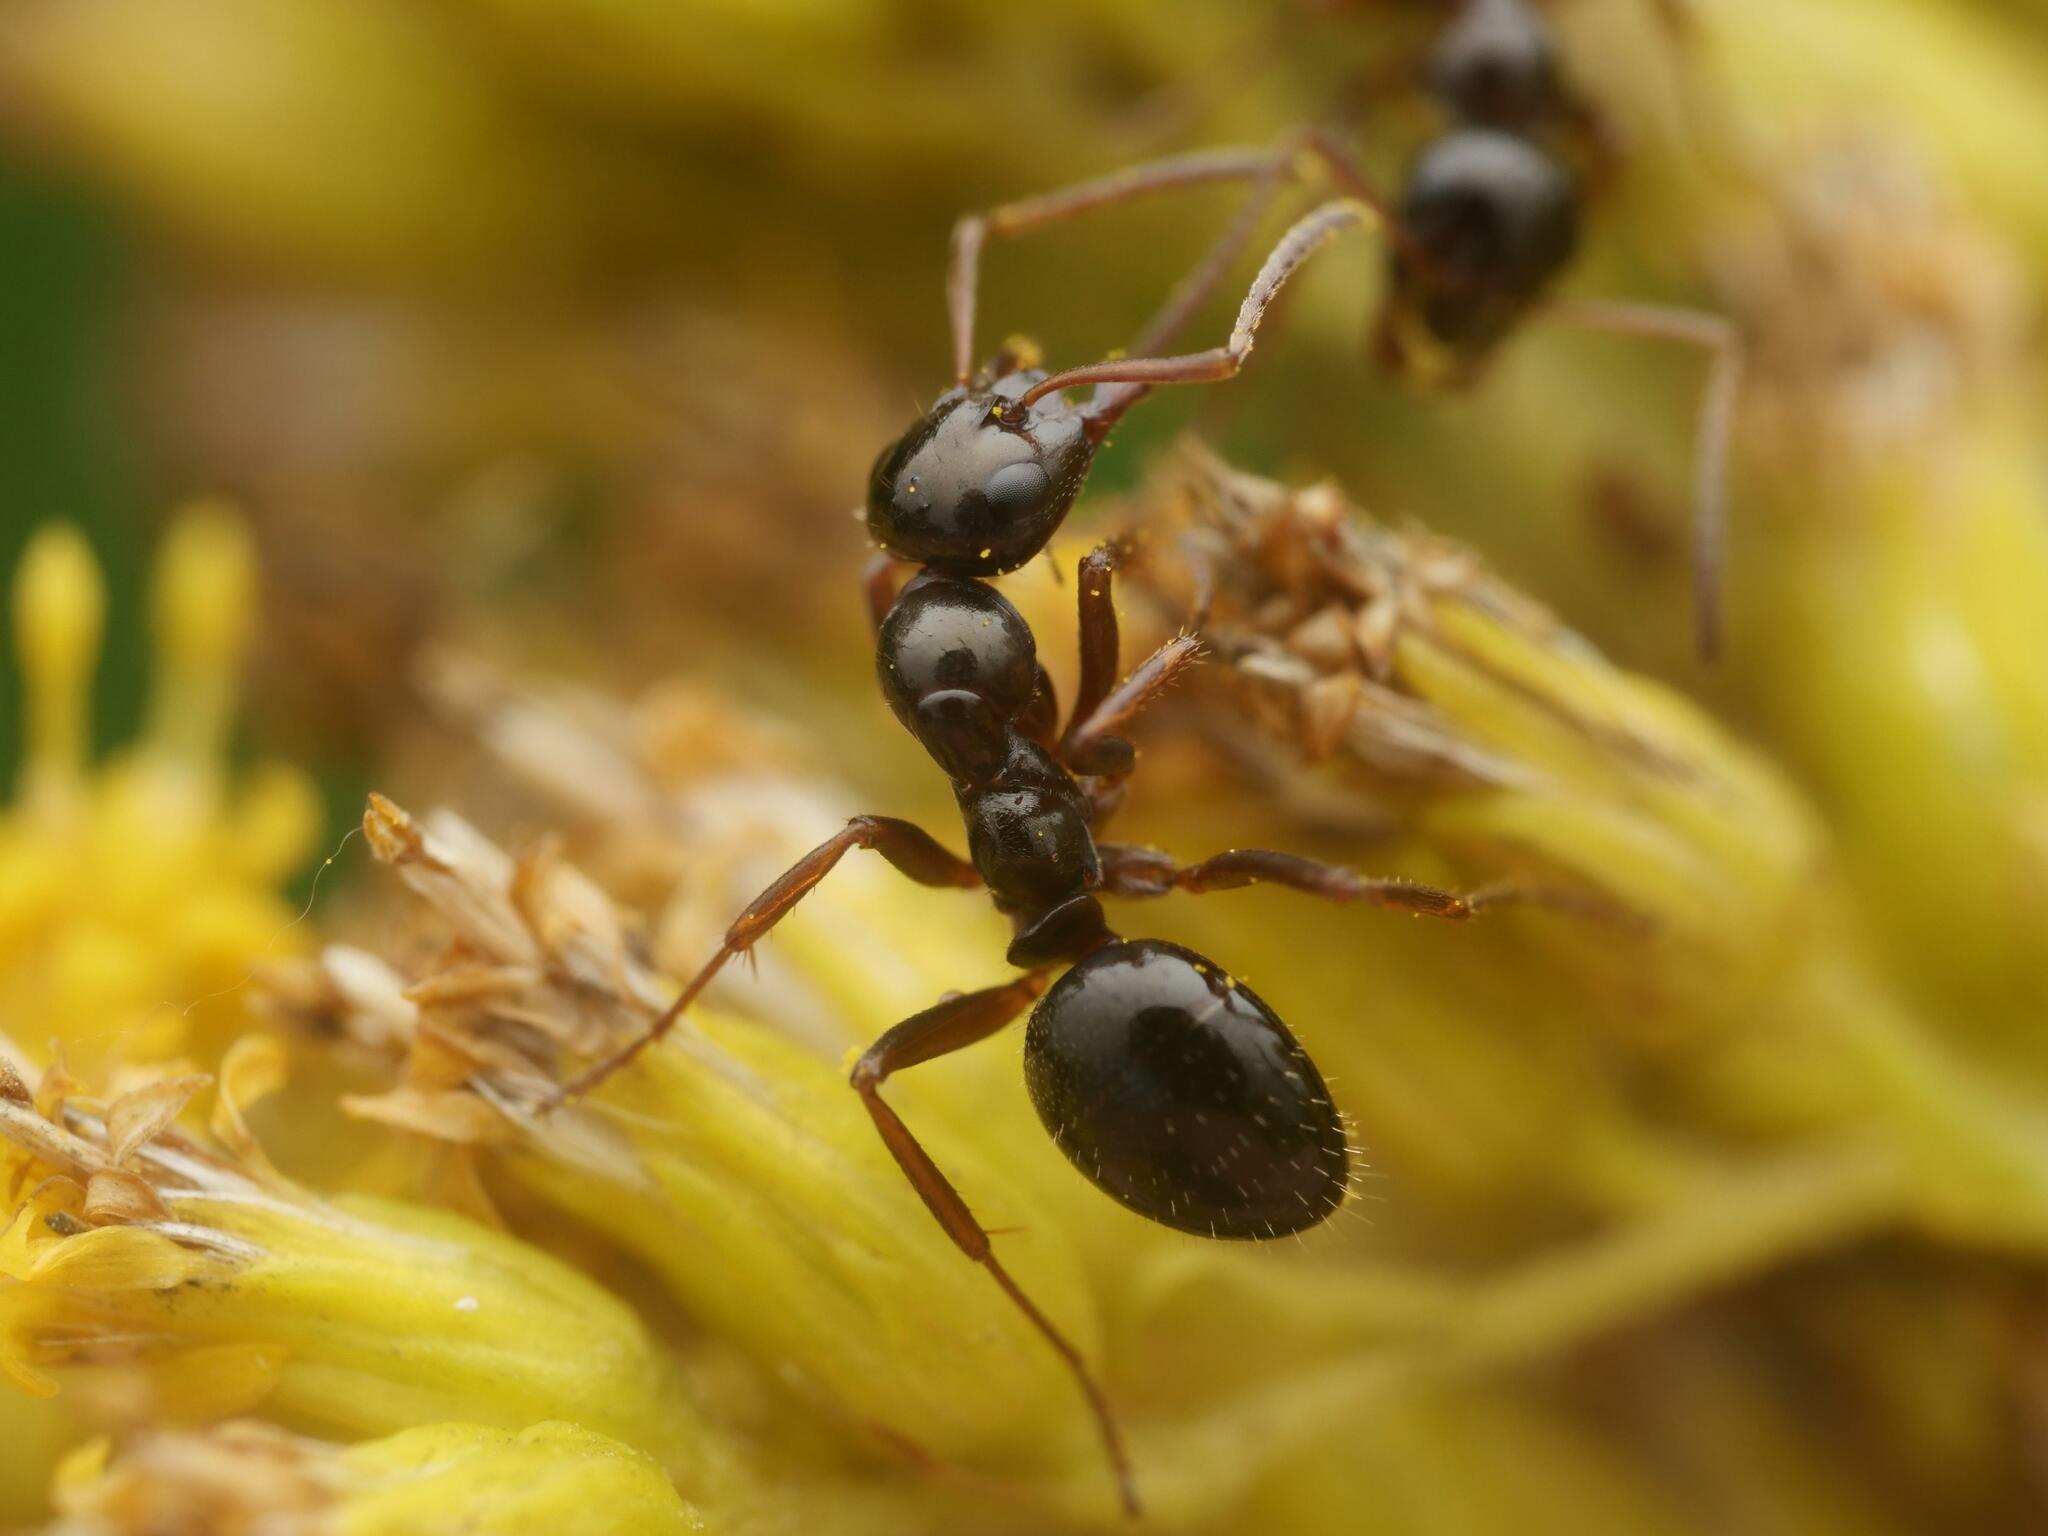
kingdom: Animalia
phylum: Arthropoda
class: Insecta
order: Hymenoptera
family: Formicidae
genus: Formica
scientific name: Formica neogagates
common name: New world black ant
